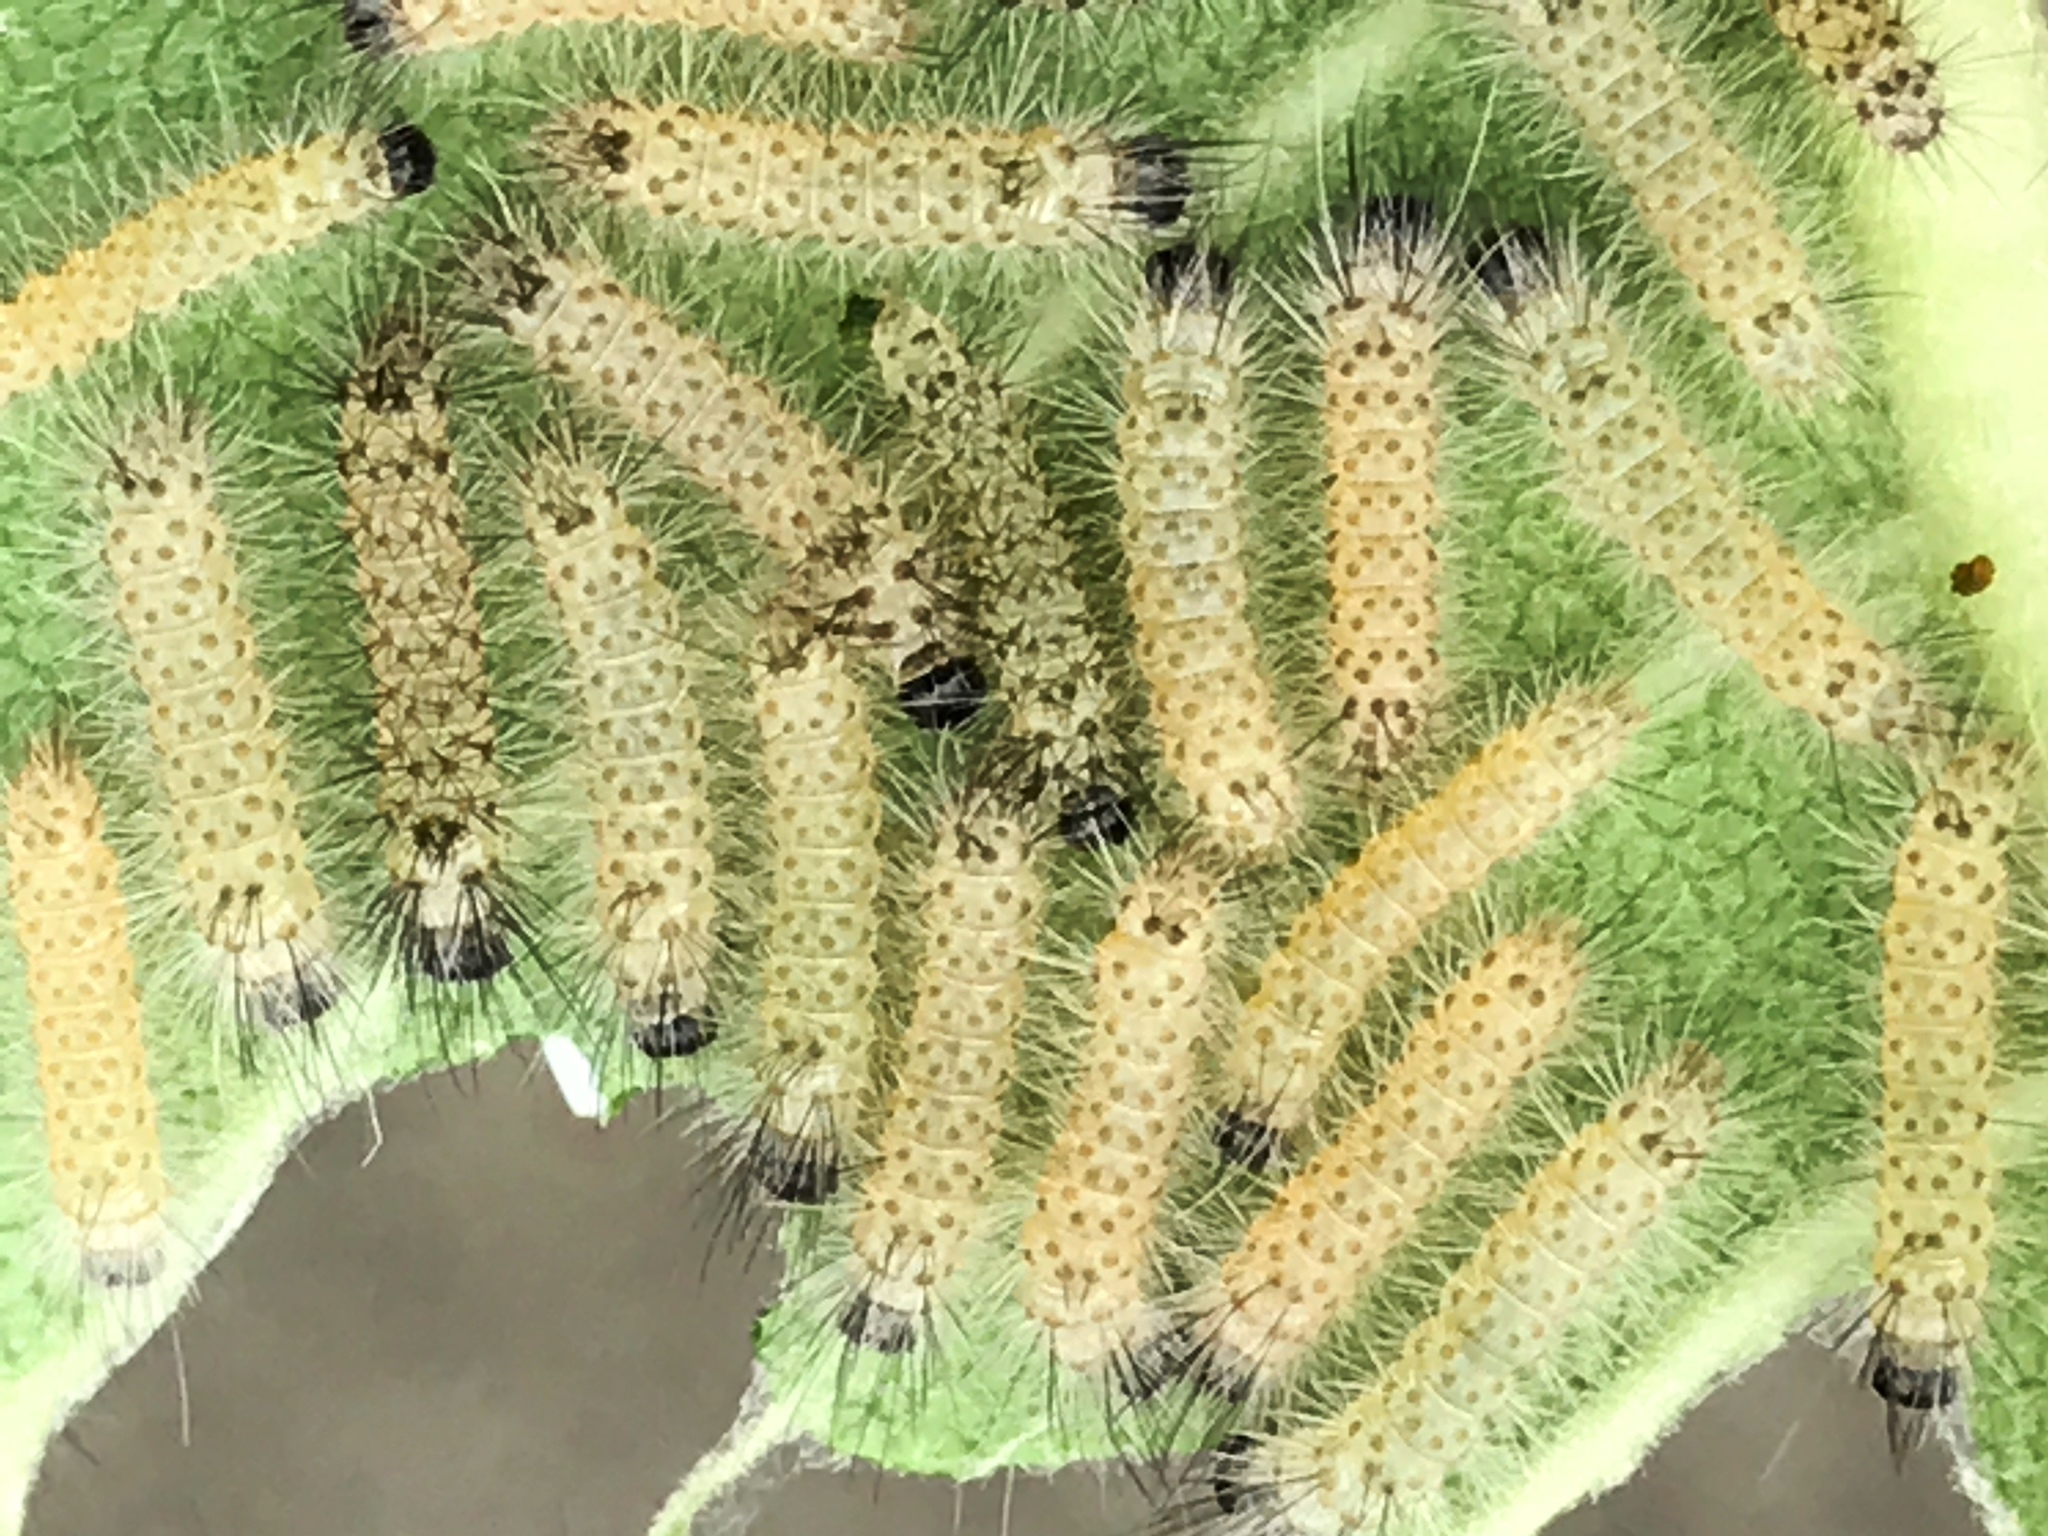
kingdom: Animalia
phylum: Arthropoda
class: Insecta
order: Lepidoptera
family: Erebidae
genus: Euchaetes
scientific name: Euchaetes egle
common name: Milkweed tussock moth
